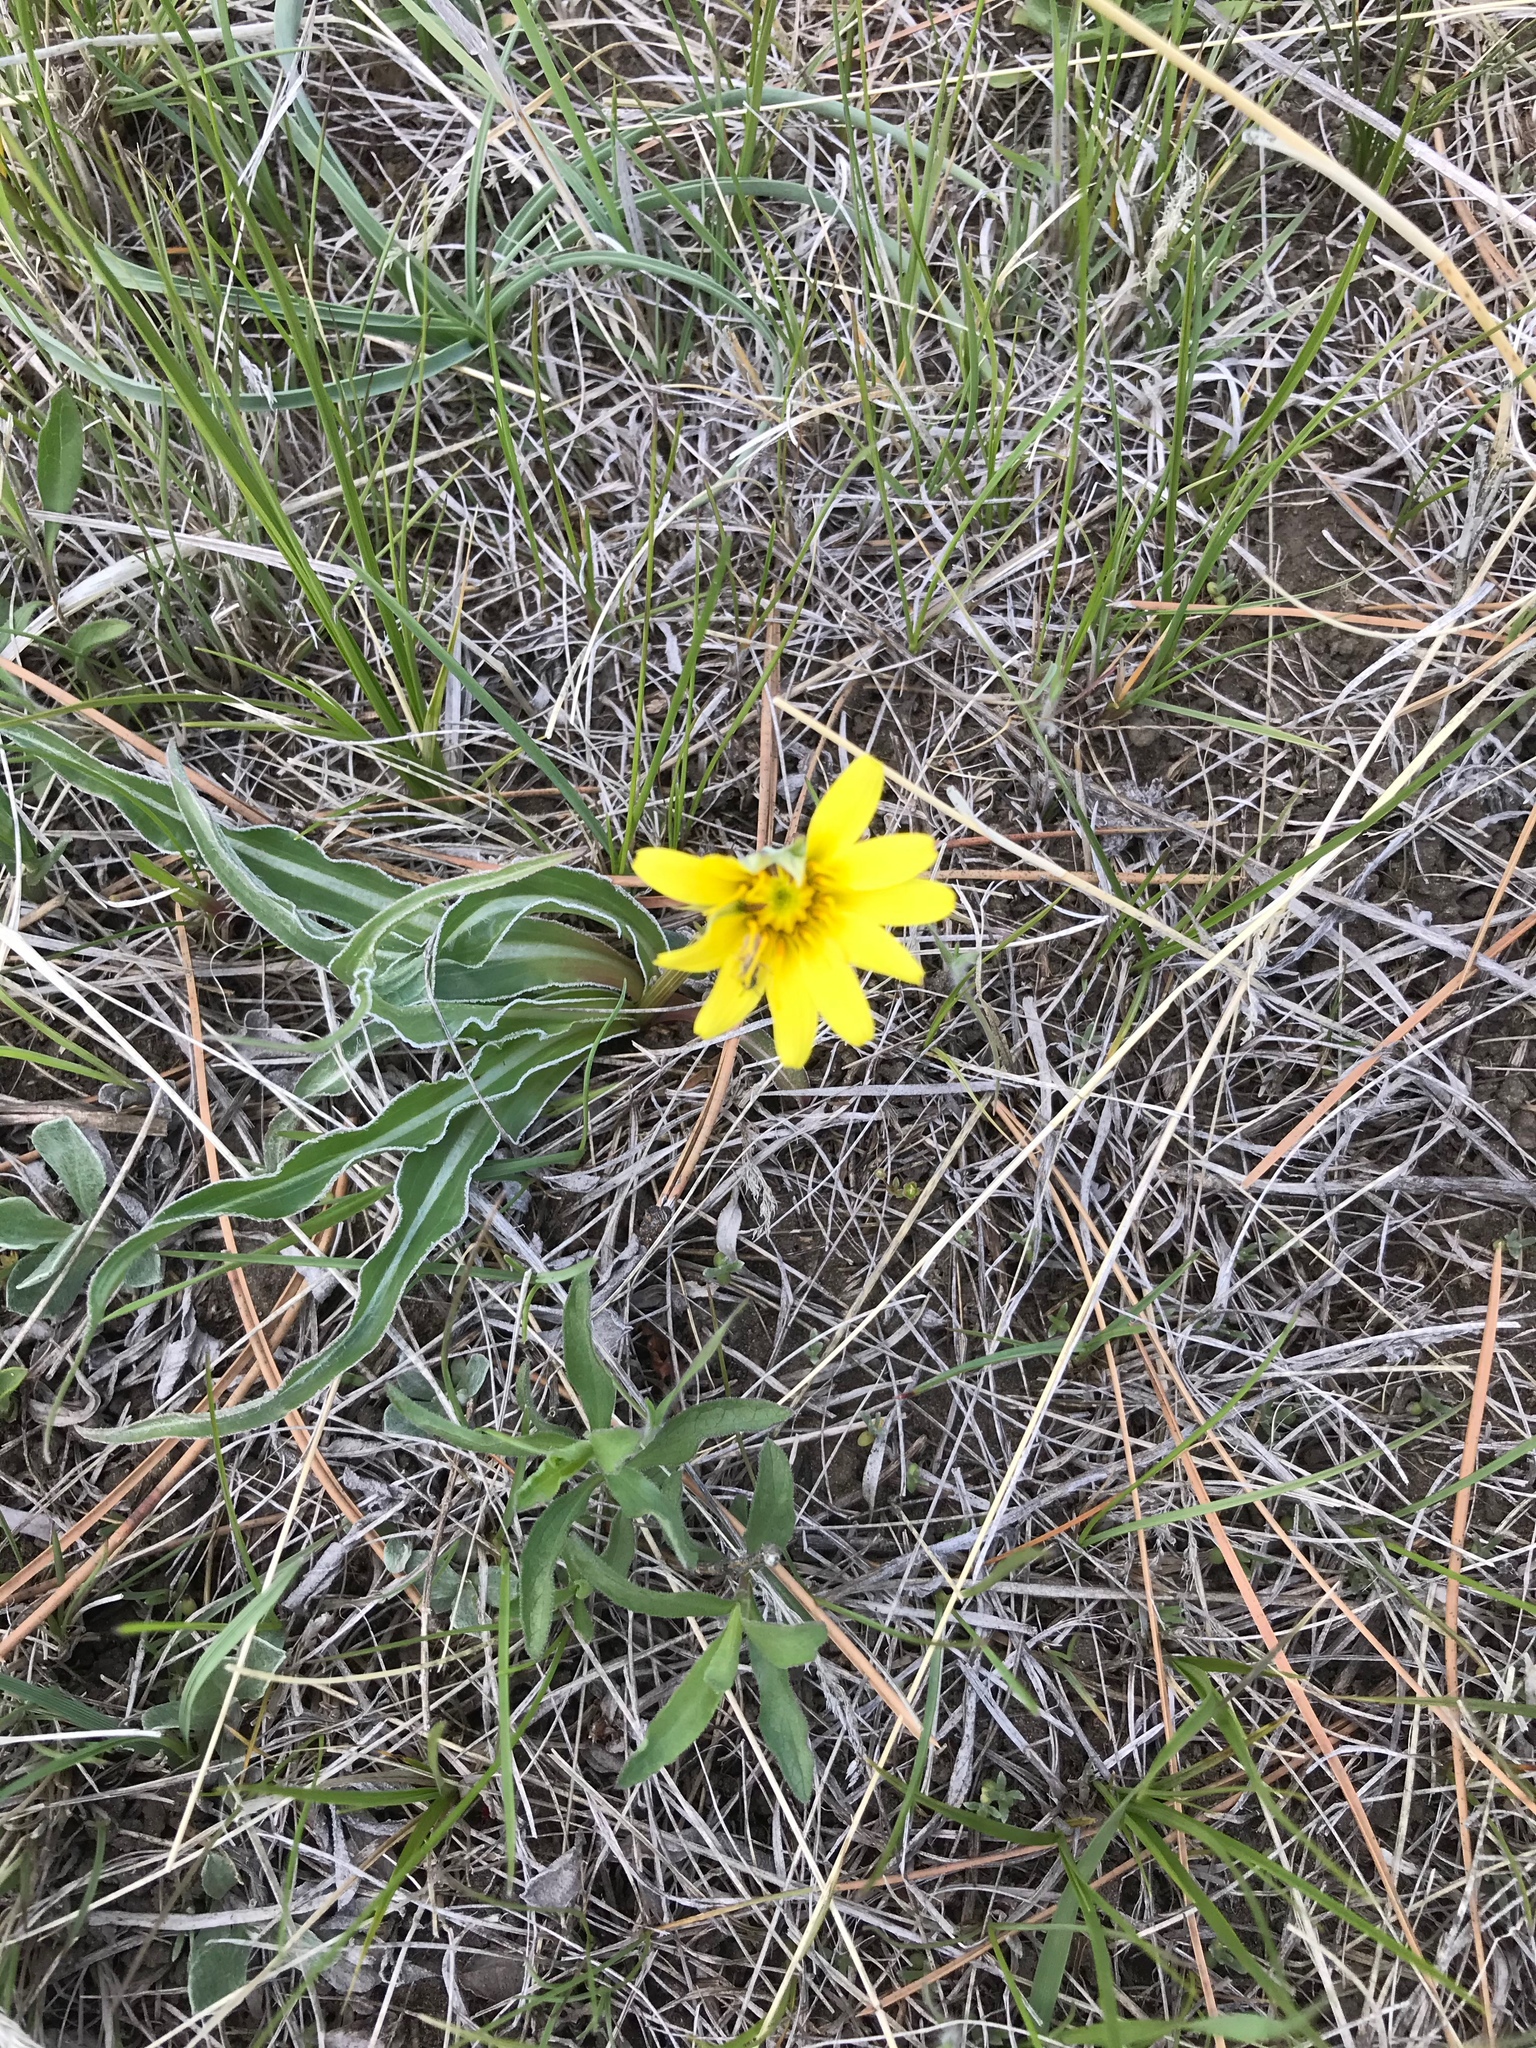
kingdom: Plantae
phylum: Tracheophyta
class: Magnoliopsida
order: Asterales
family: Asteraceae
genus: Microseris
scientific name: Microseris cuspidata
